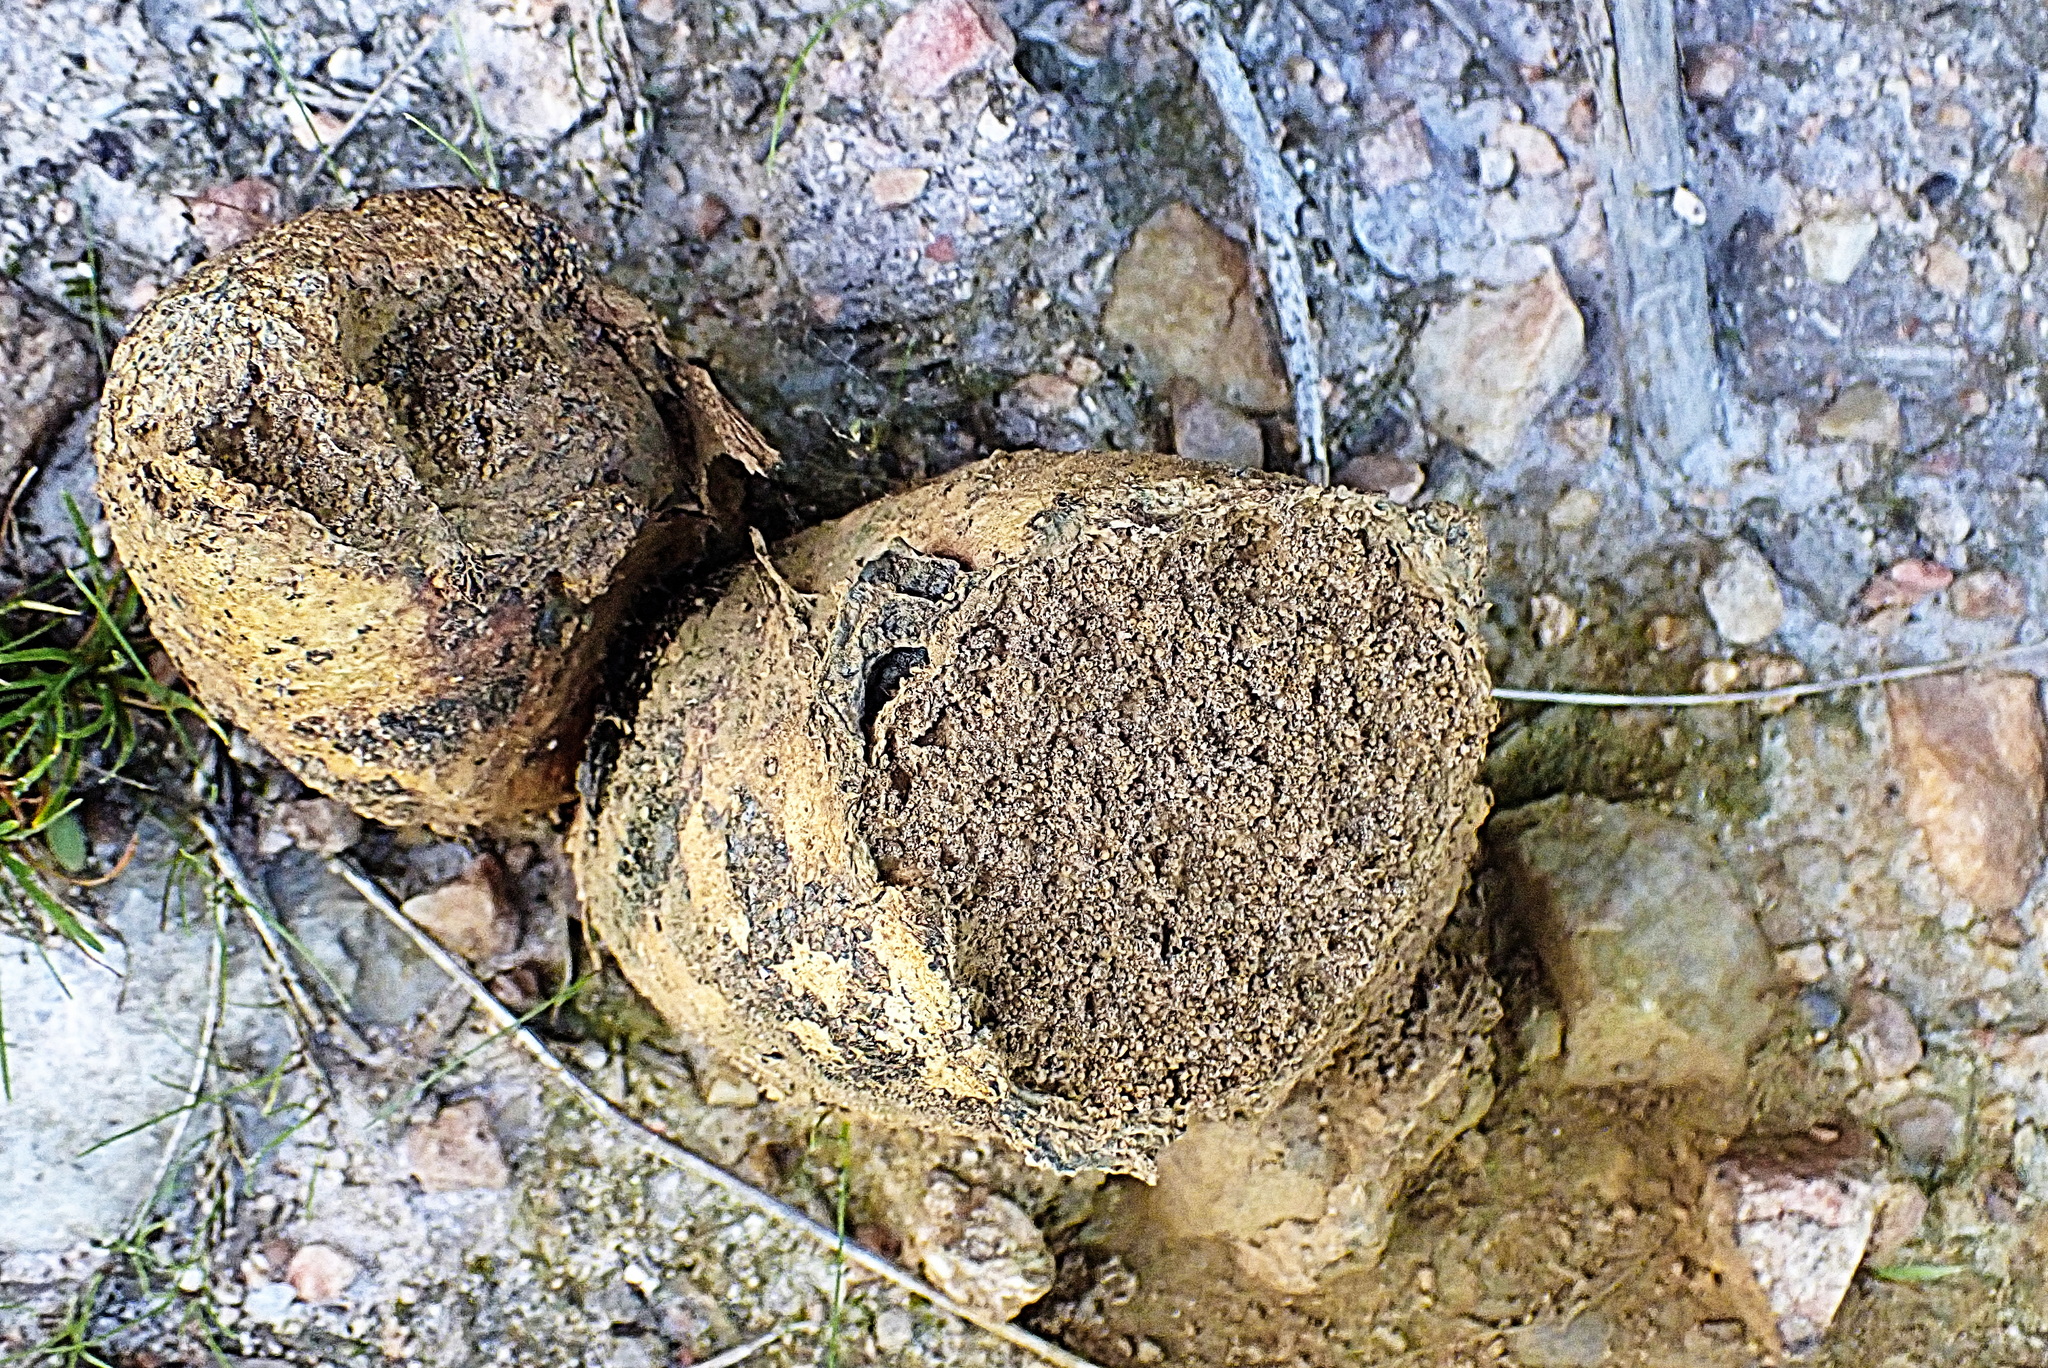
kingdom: Fungi
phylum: Basidiomycota
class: Agaricomycetes
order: Boletales
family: Sclerodermataceae
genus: Pisolithus
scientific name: Pisolithus arhizus
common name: Dyeball
